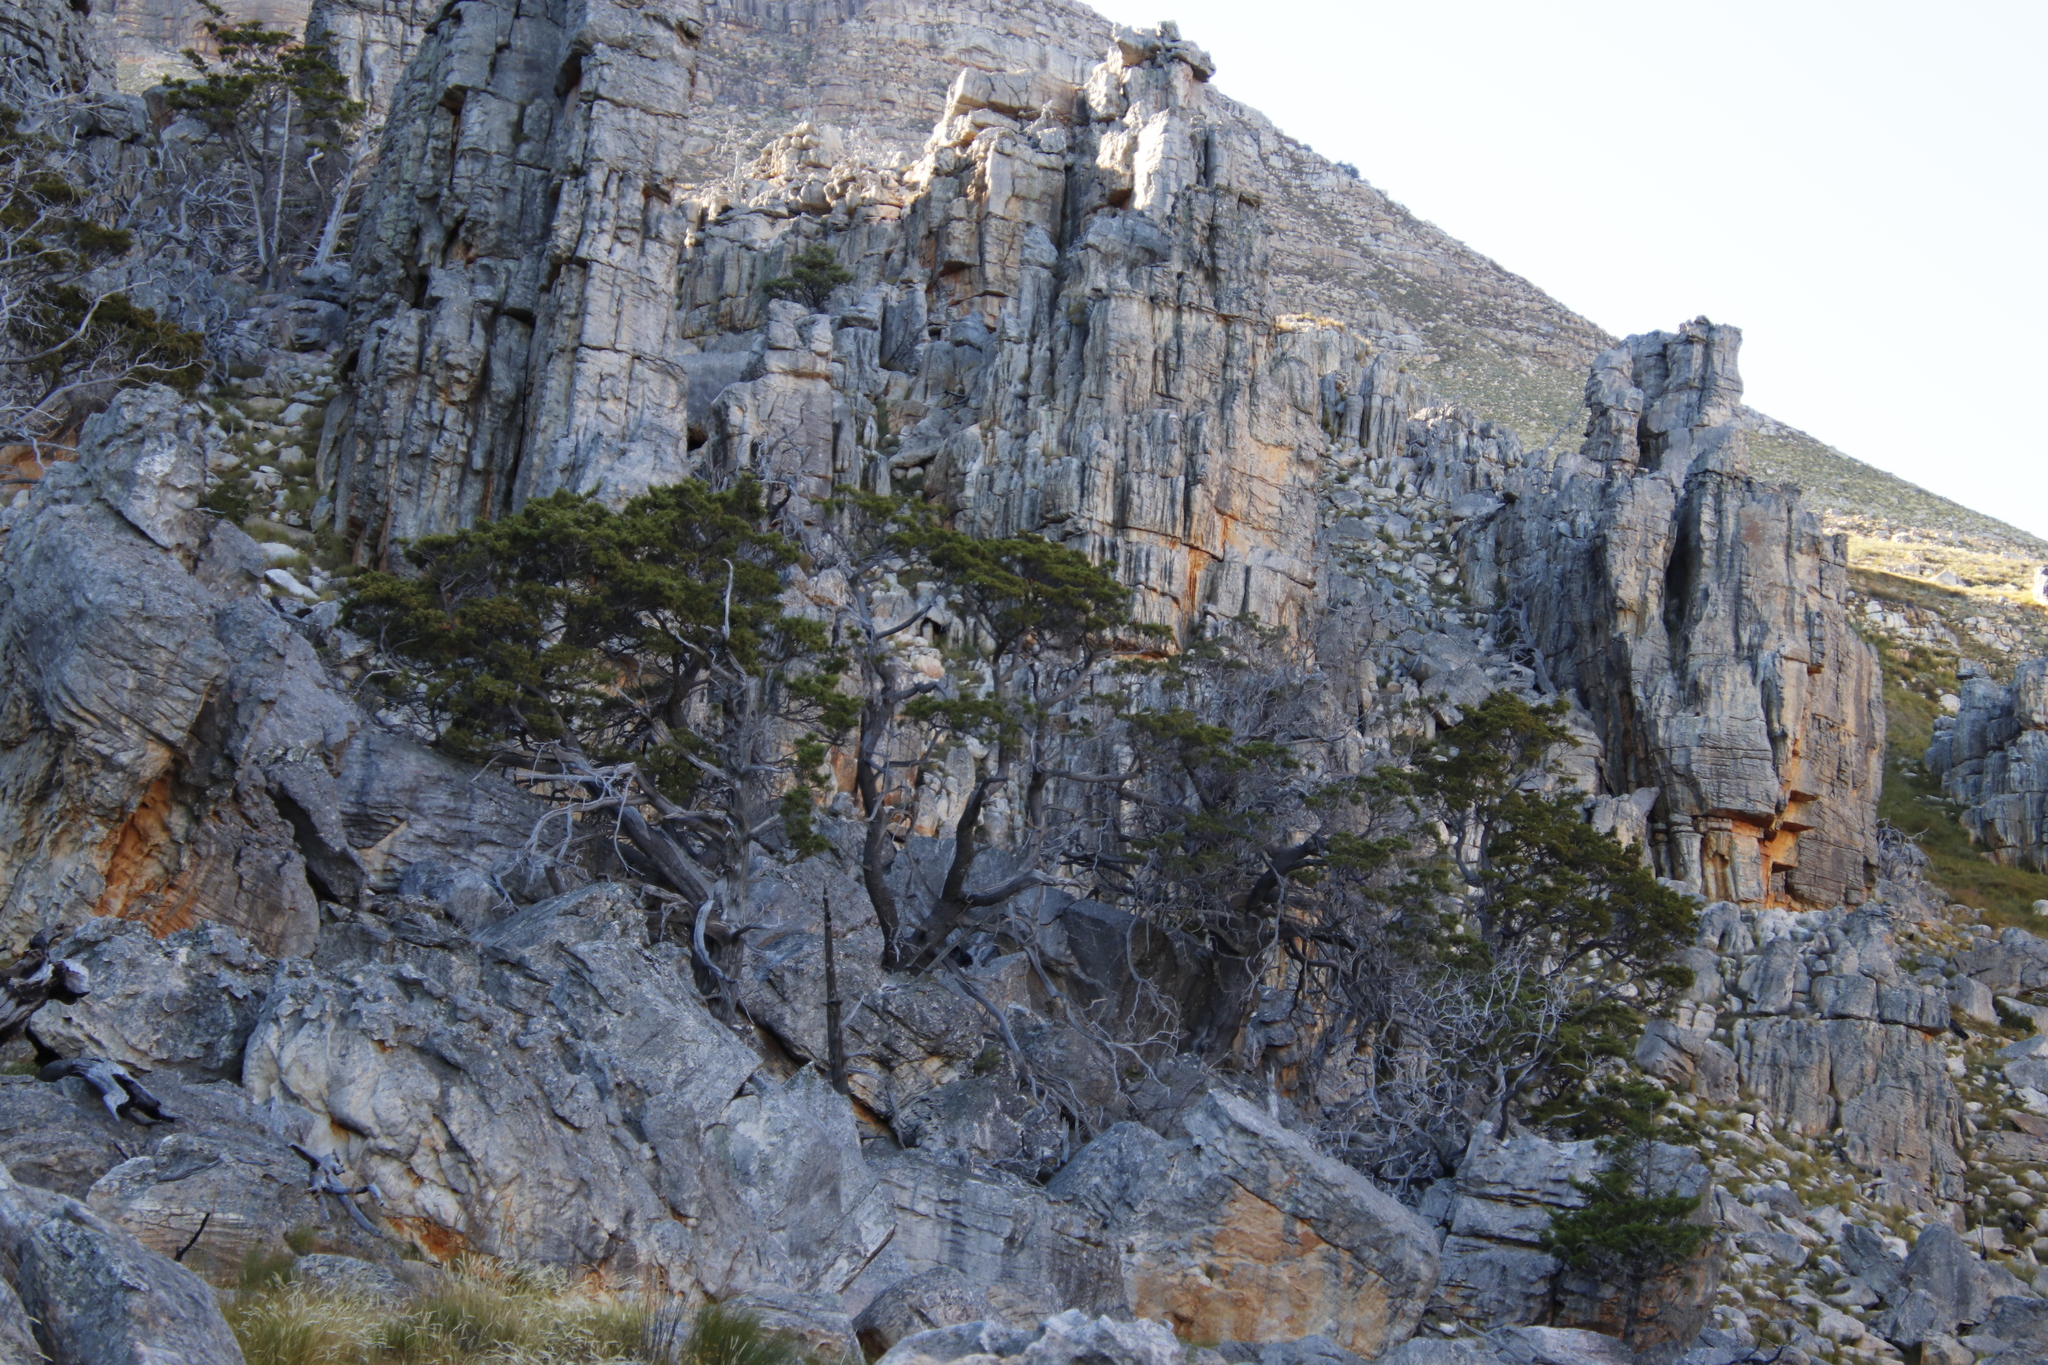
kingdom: Plantae
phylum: Tracheophyta
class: Pinopsida
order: Pinales
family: Cupressaceae
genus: Widdringtonia
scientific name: Widdringtonia nodiflora
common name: Cape cypress
